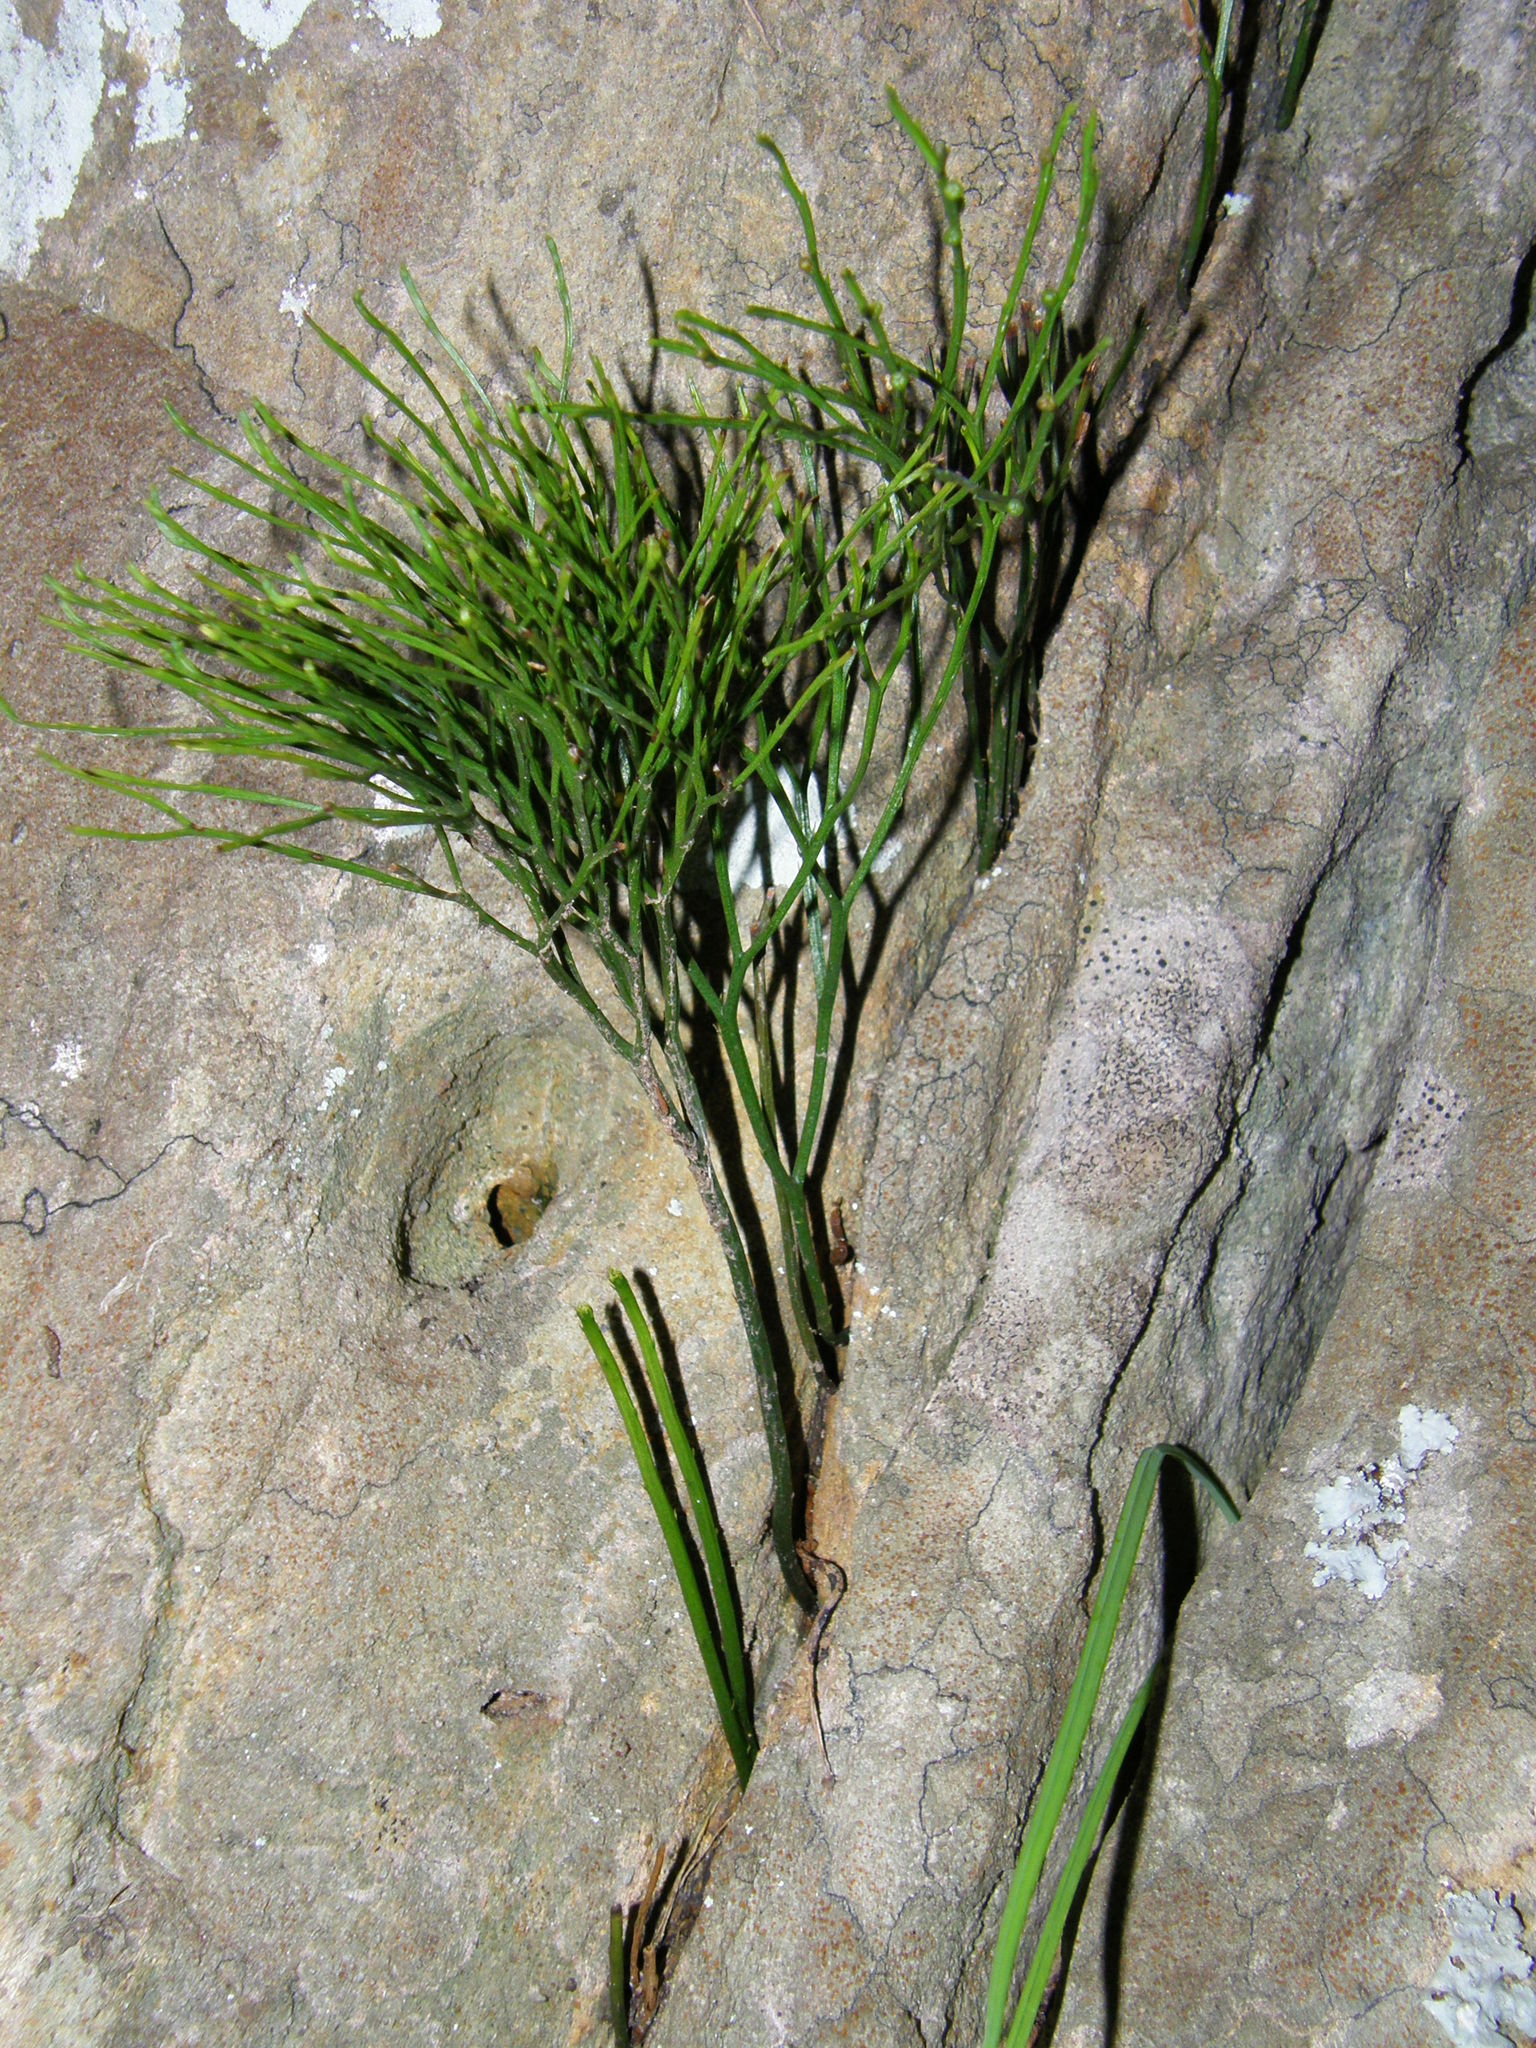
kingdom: Plantae
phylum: Tracheophyta
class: Polypodiopsida
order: Psilotales
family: Psilotaceae
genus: Psilotum
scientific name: Psilotum nudum
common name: Skeleton fork fern
